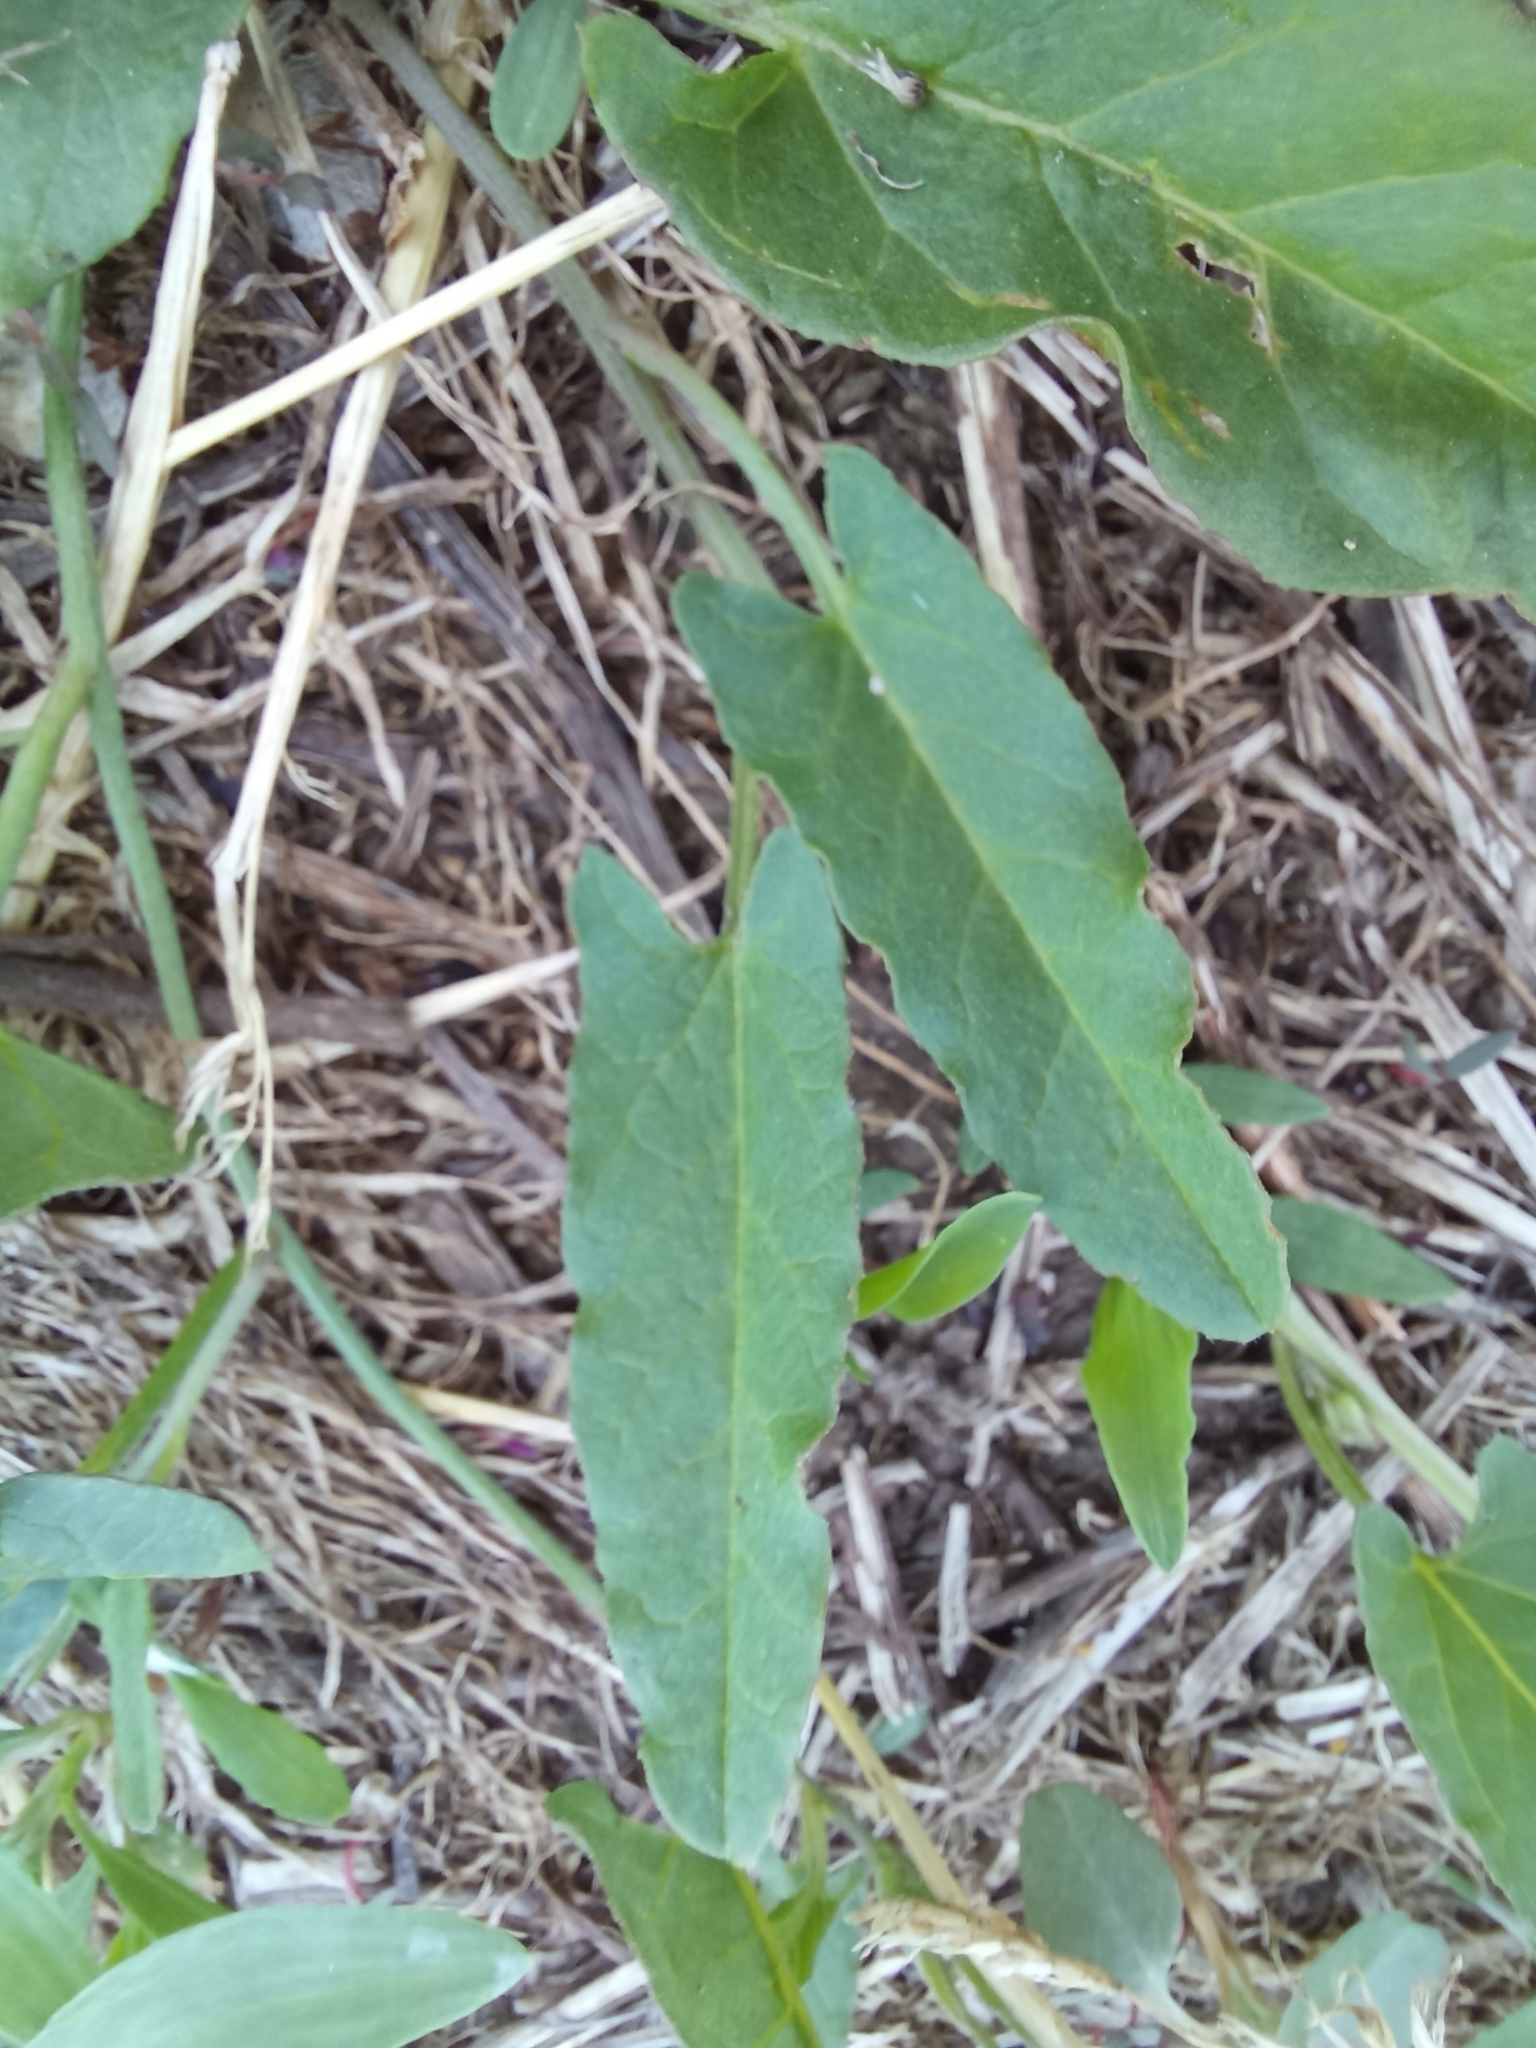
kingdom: Plantae
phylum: Tracheophyta
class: Magnoliopsida
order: Solanales
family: Convolvulaceae
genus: Convolvulus
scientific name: Convolvulus arvensis
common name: Field bindweed
